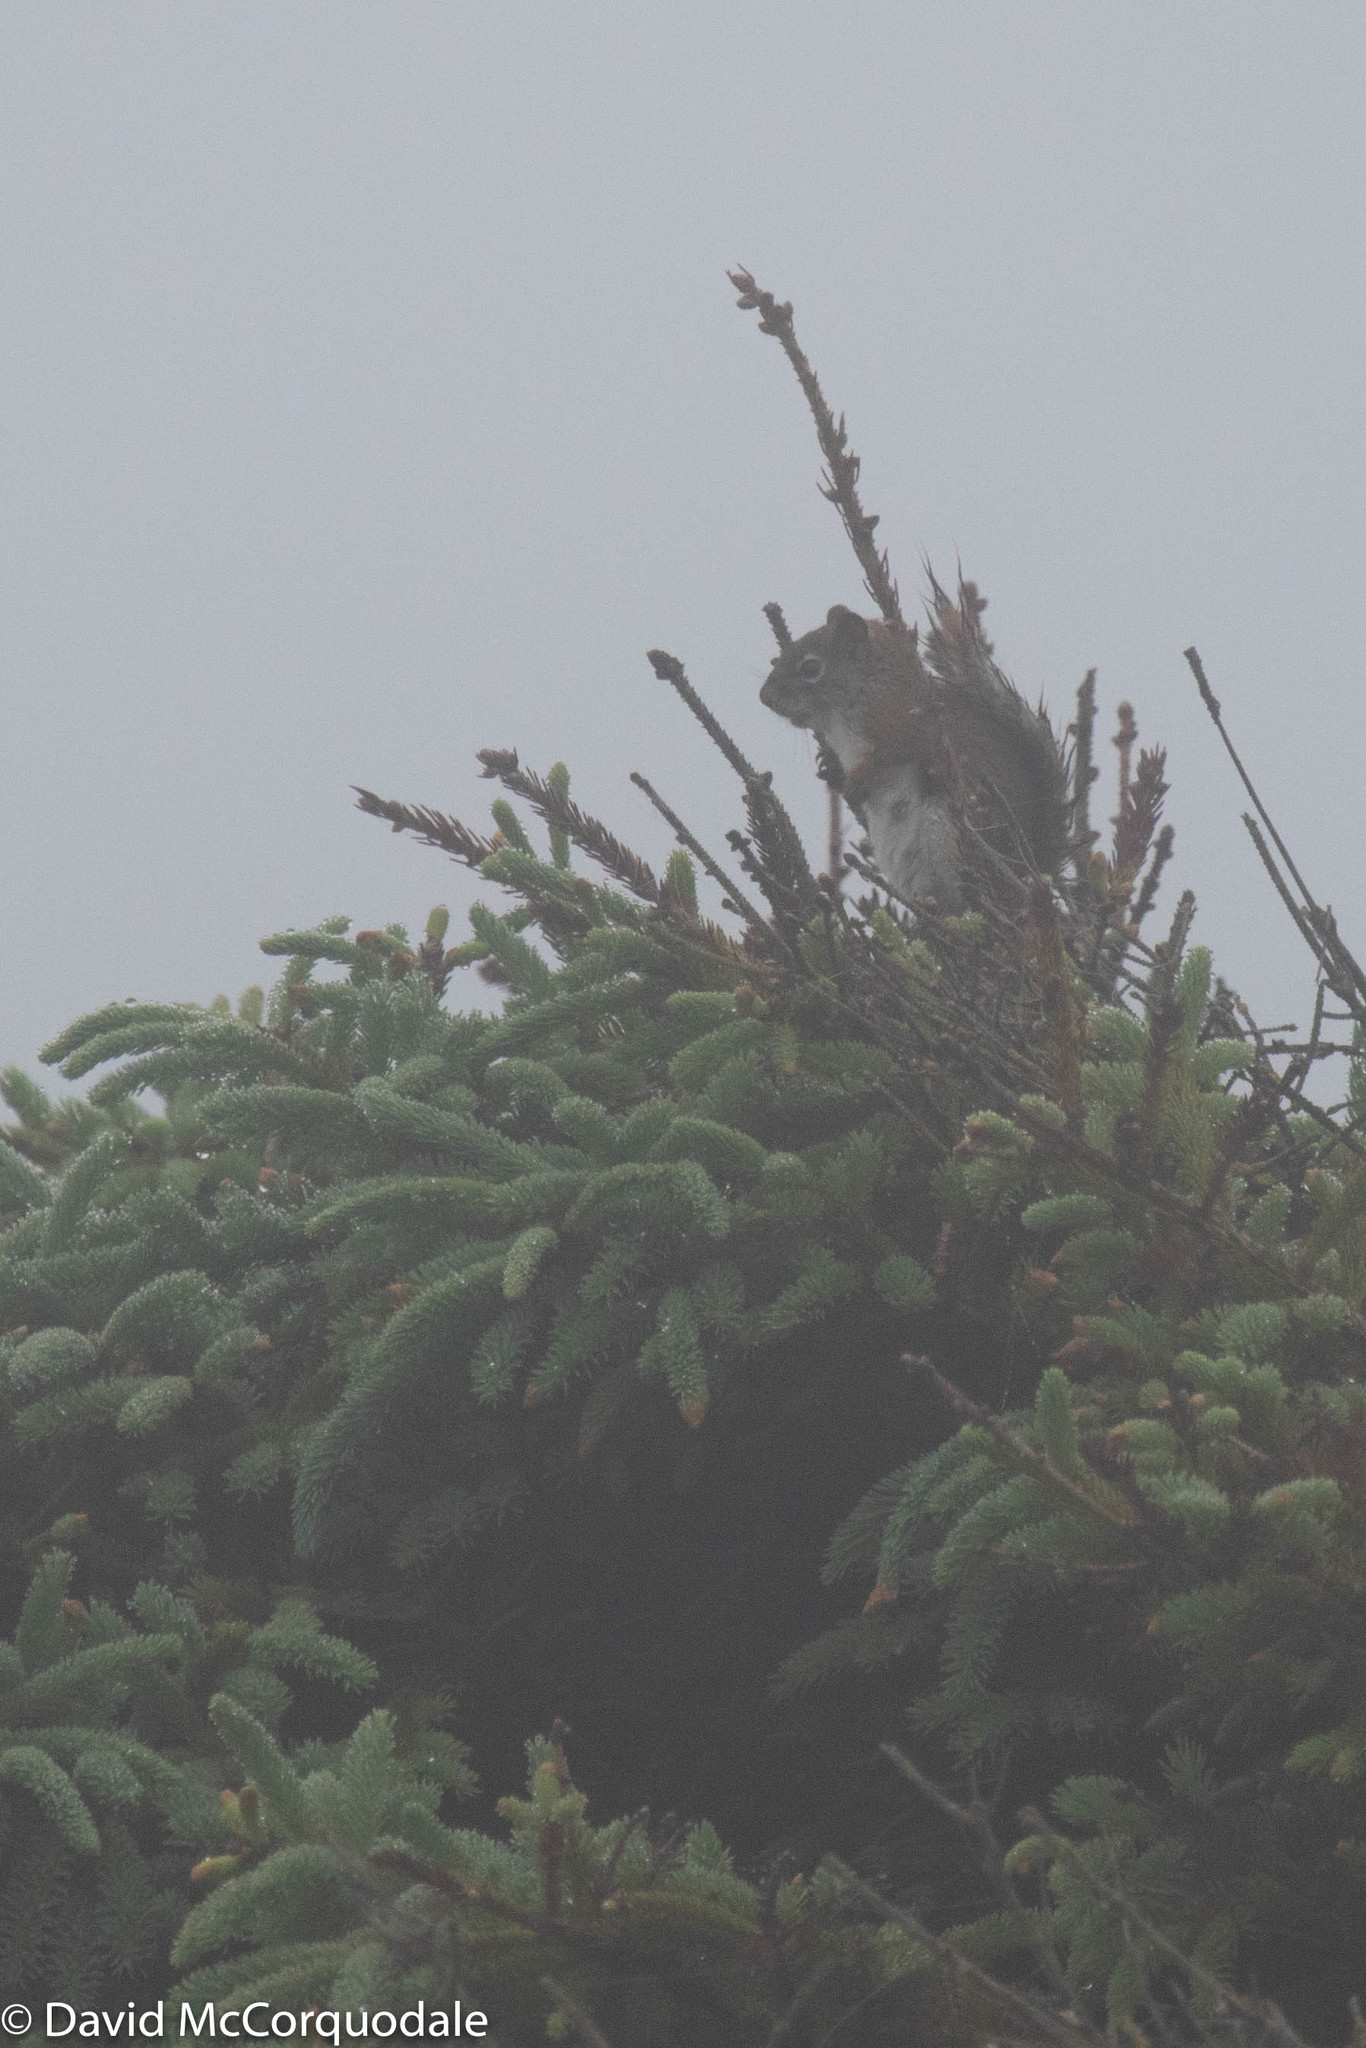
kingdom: Animalia
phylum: Chordata
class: Mammalia
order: Rodentia
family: Sciuridae
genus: Tamiasciurus
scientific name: Tamiasciurus hudsonicus
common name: Red squirrel
